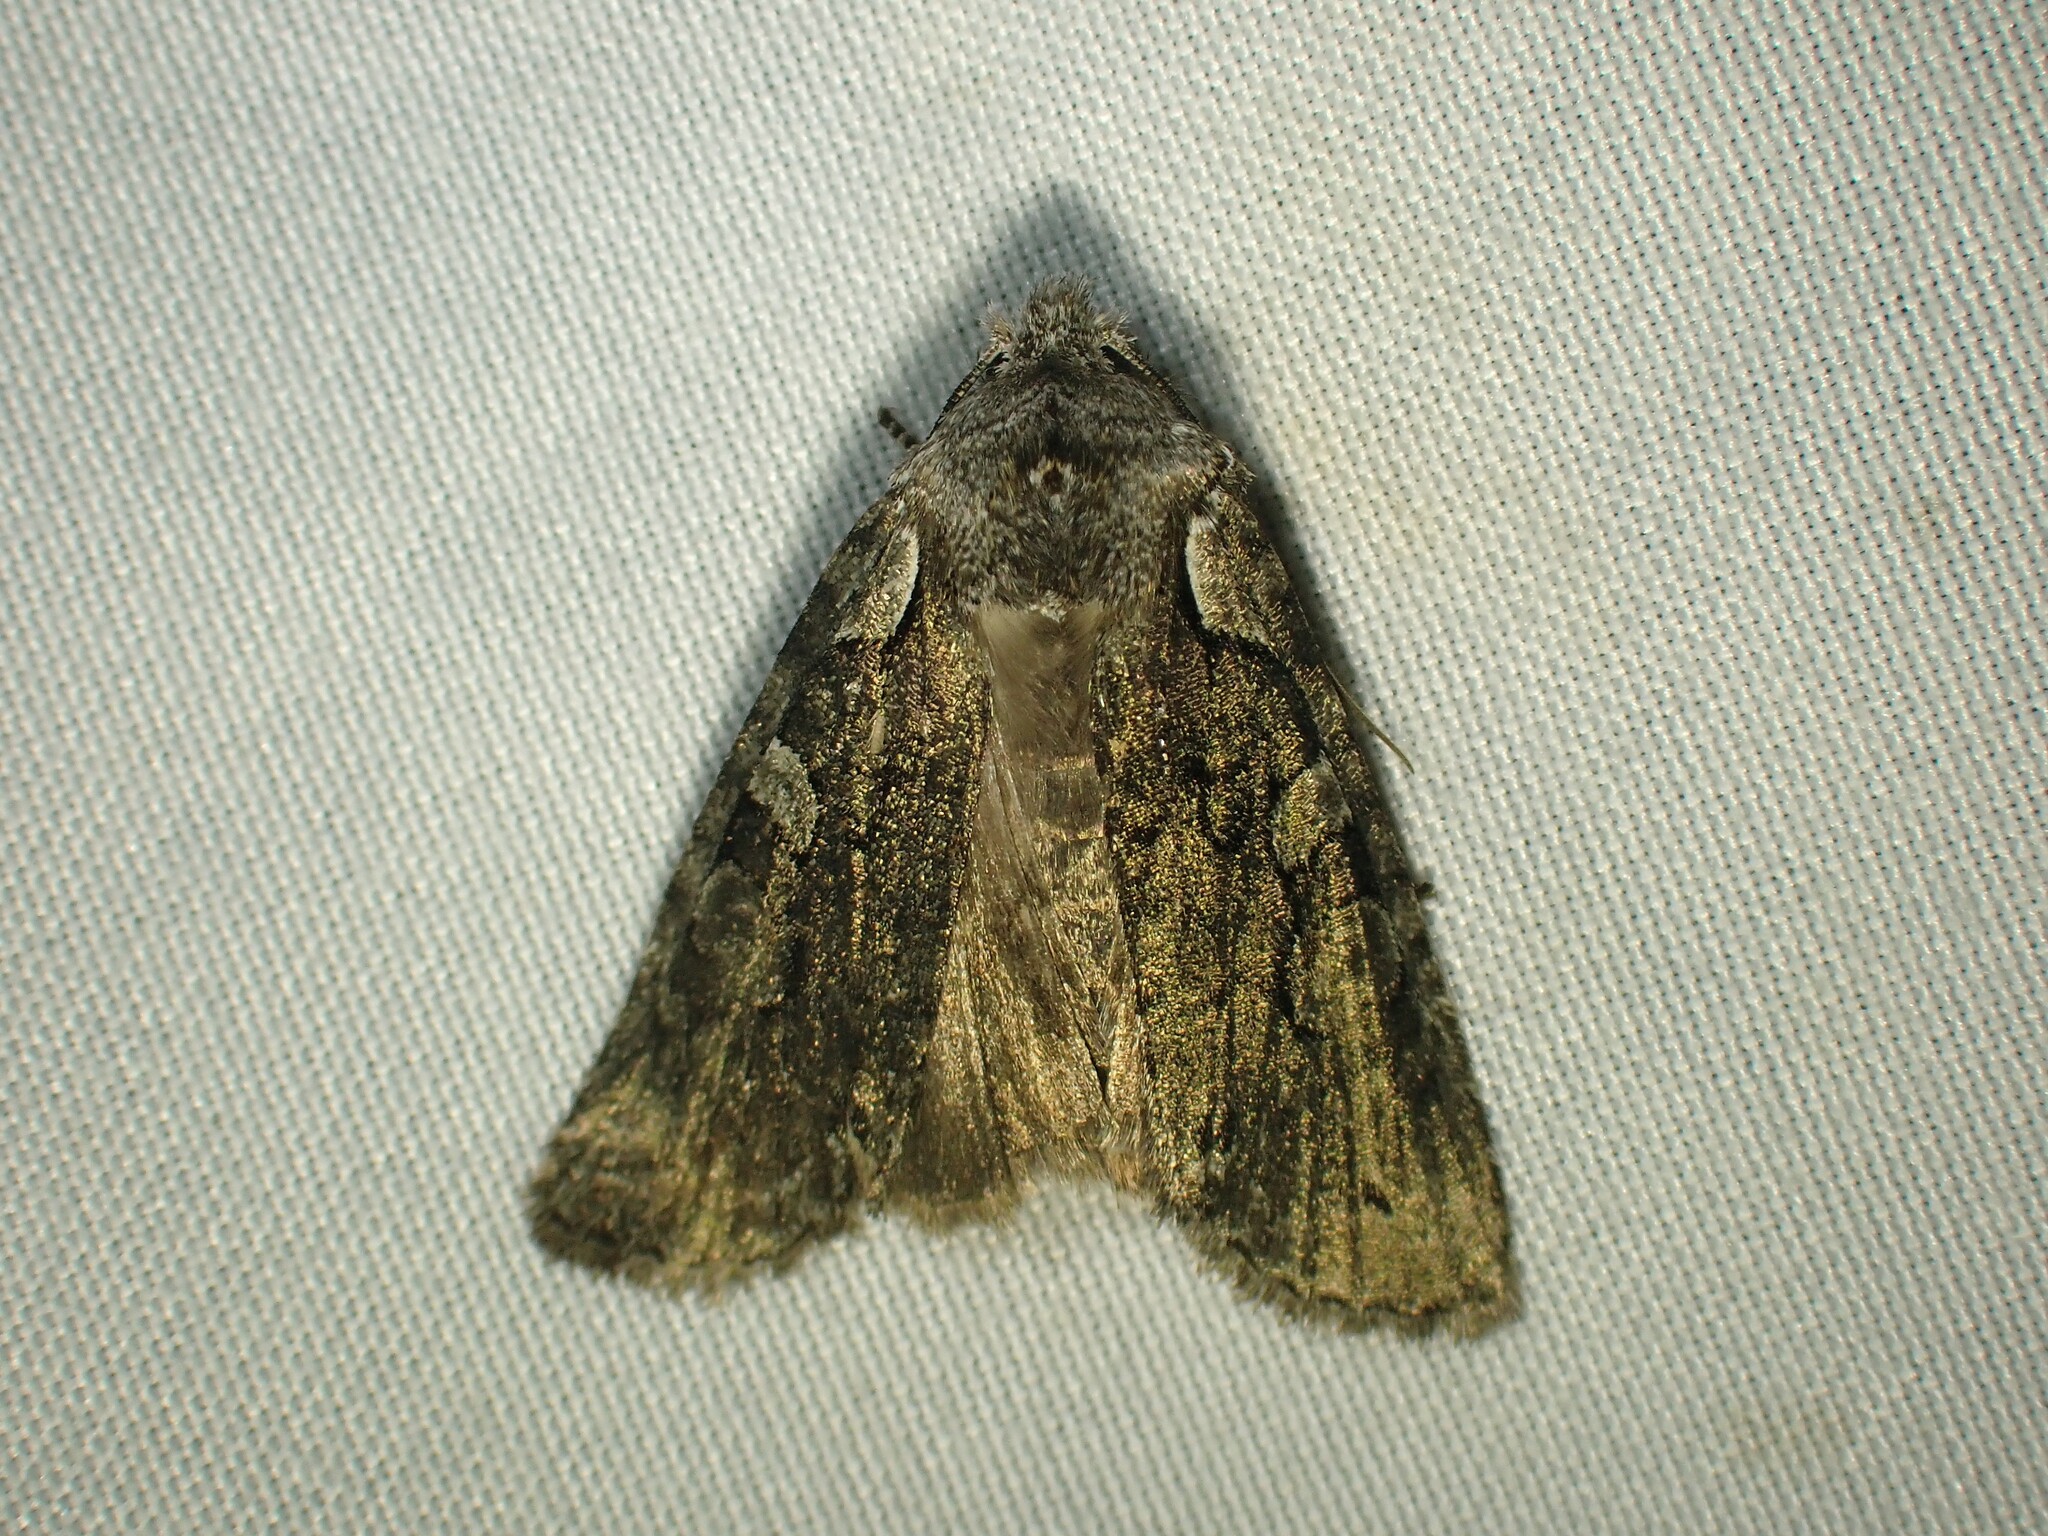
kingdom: Animalia
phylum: Arthropoda
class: Insecta
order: Lepidoptera
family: Noctuidae
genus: Lithophane
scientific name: Lithophane baileyi
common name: Bailey's pinion moth
